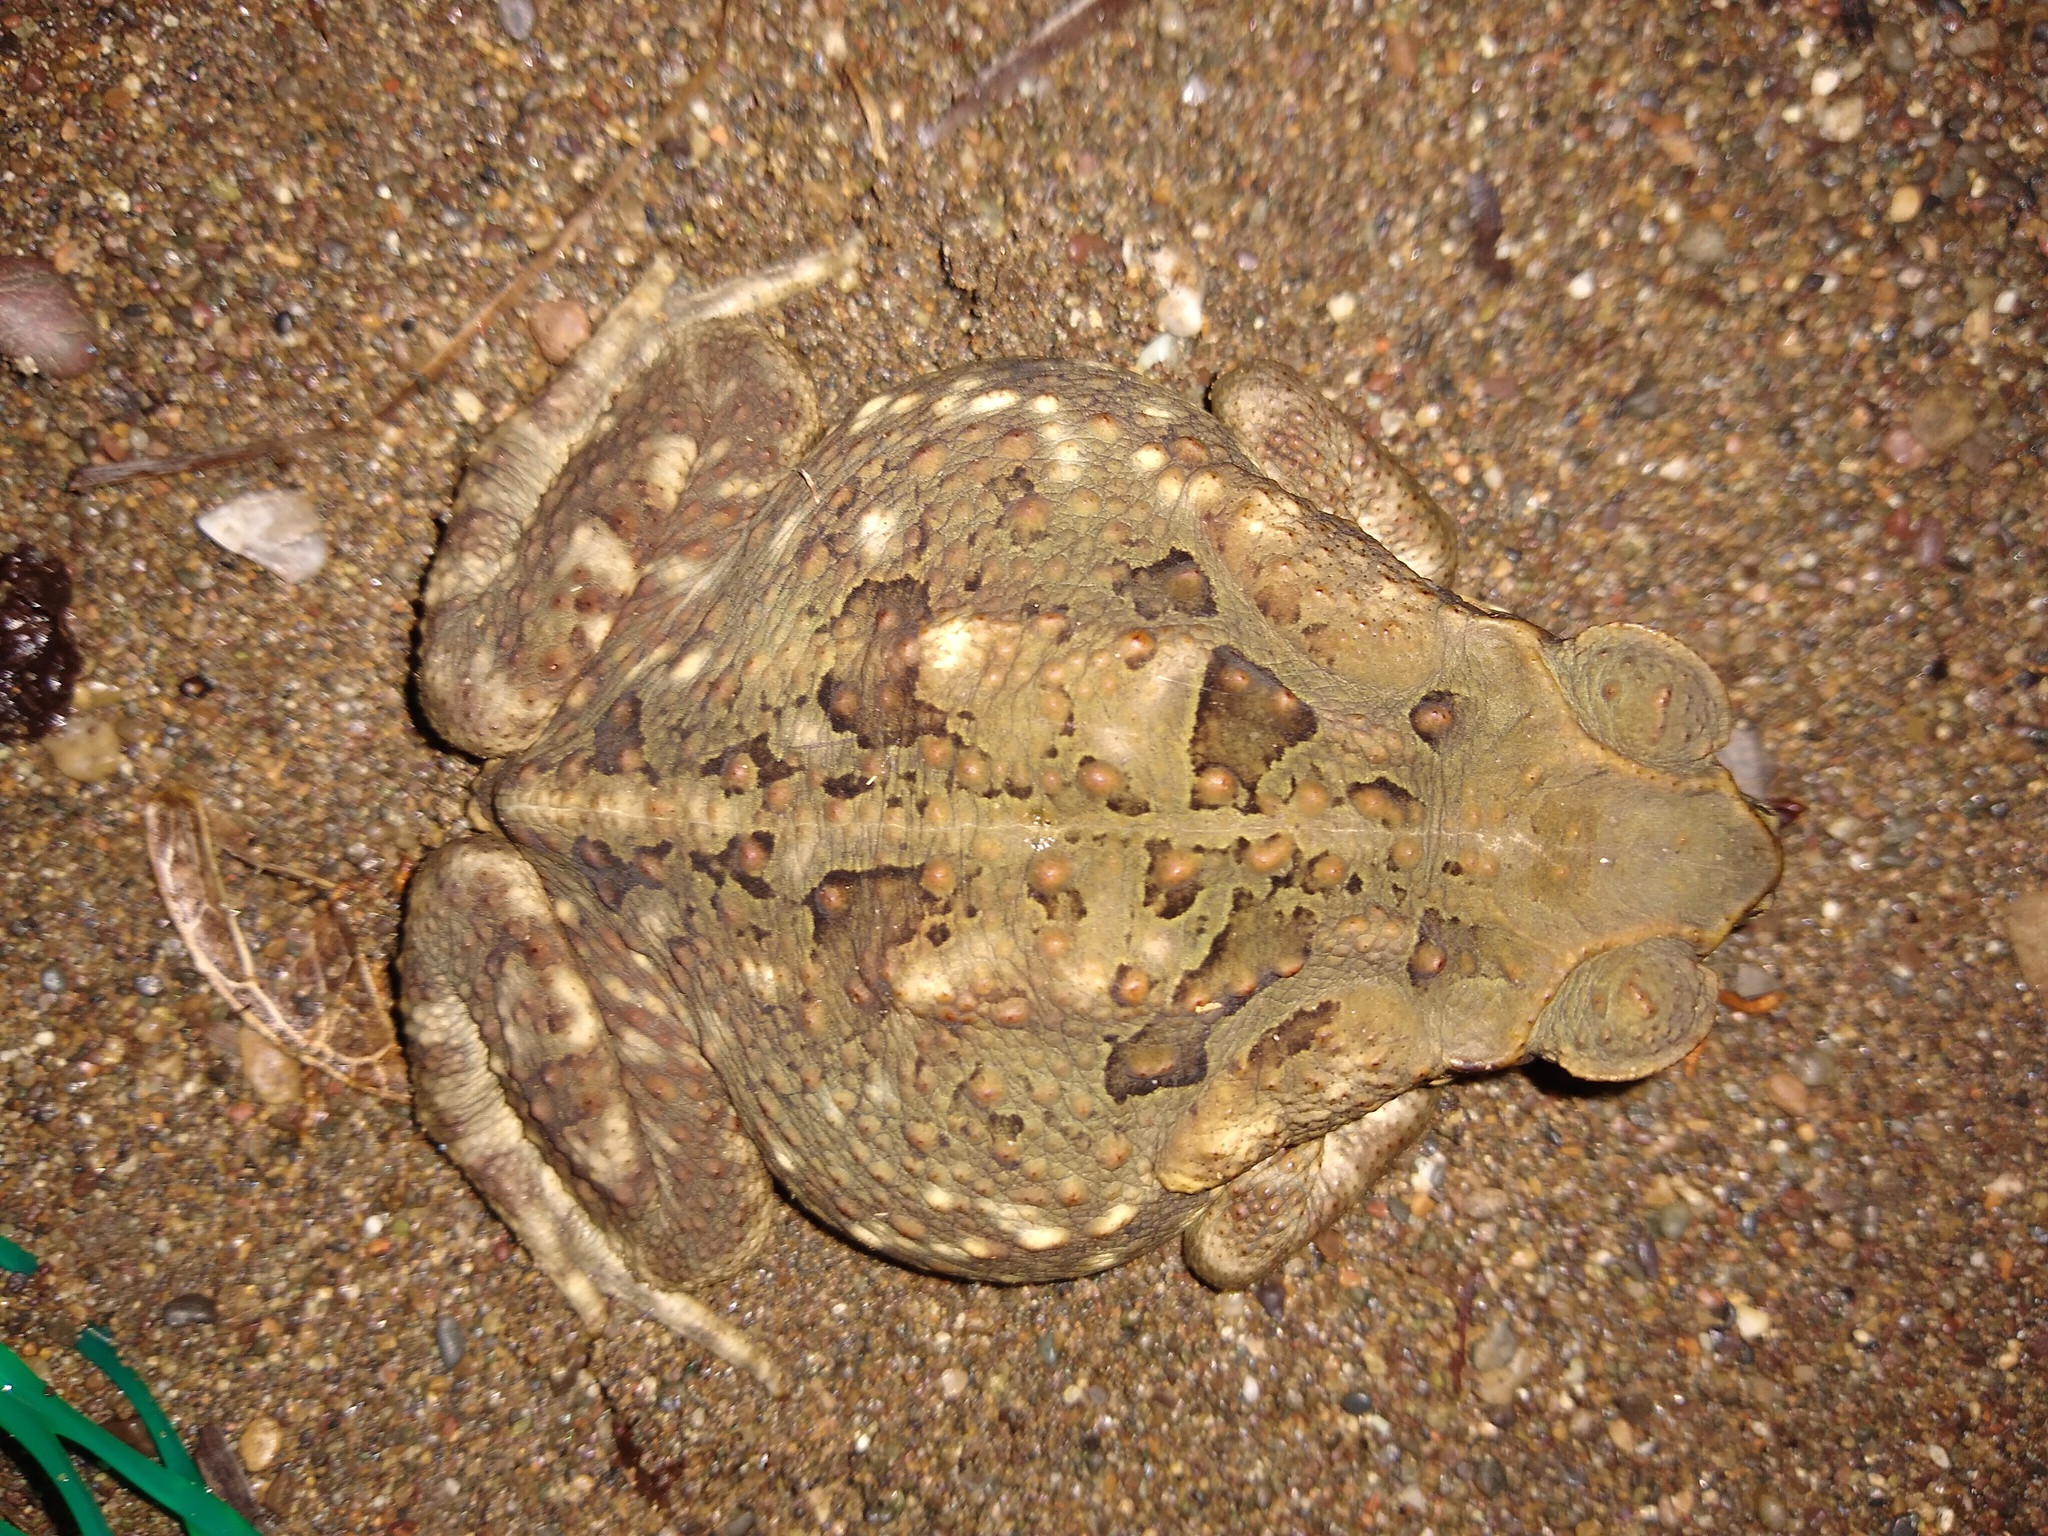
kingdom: Animalia
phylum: Chordata
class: Amphibia
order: Anura
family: Bufonidae
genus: Rhinella
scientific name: Rhinella horribilis
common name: Mesoamerican cane toad
